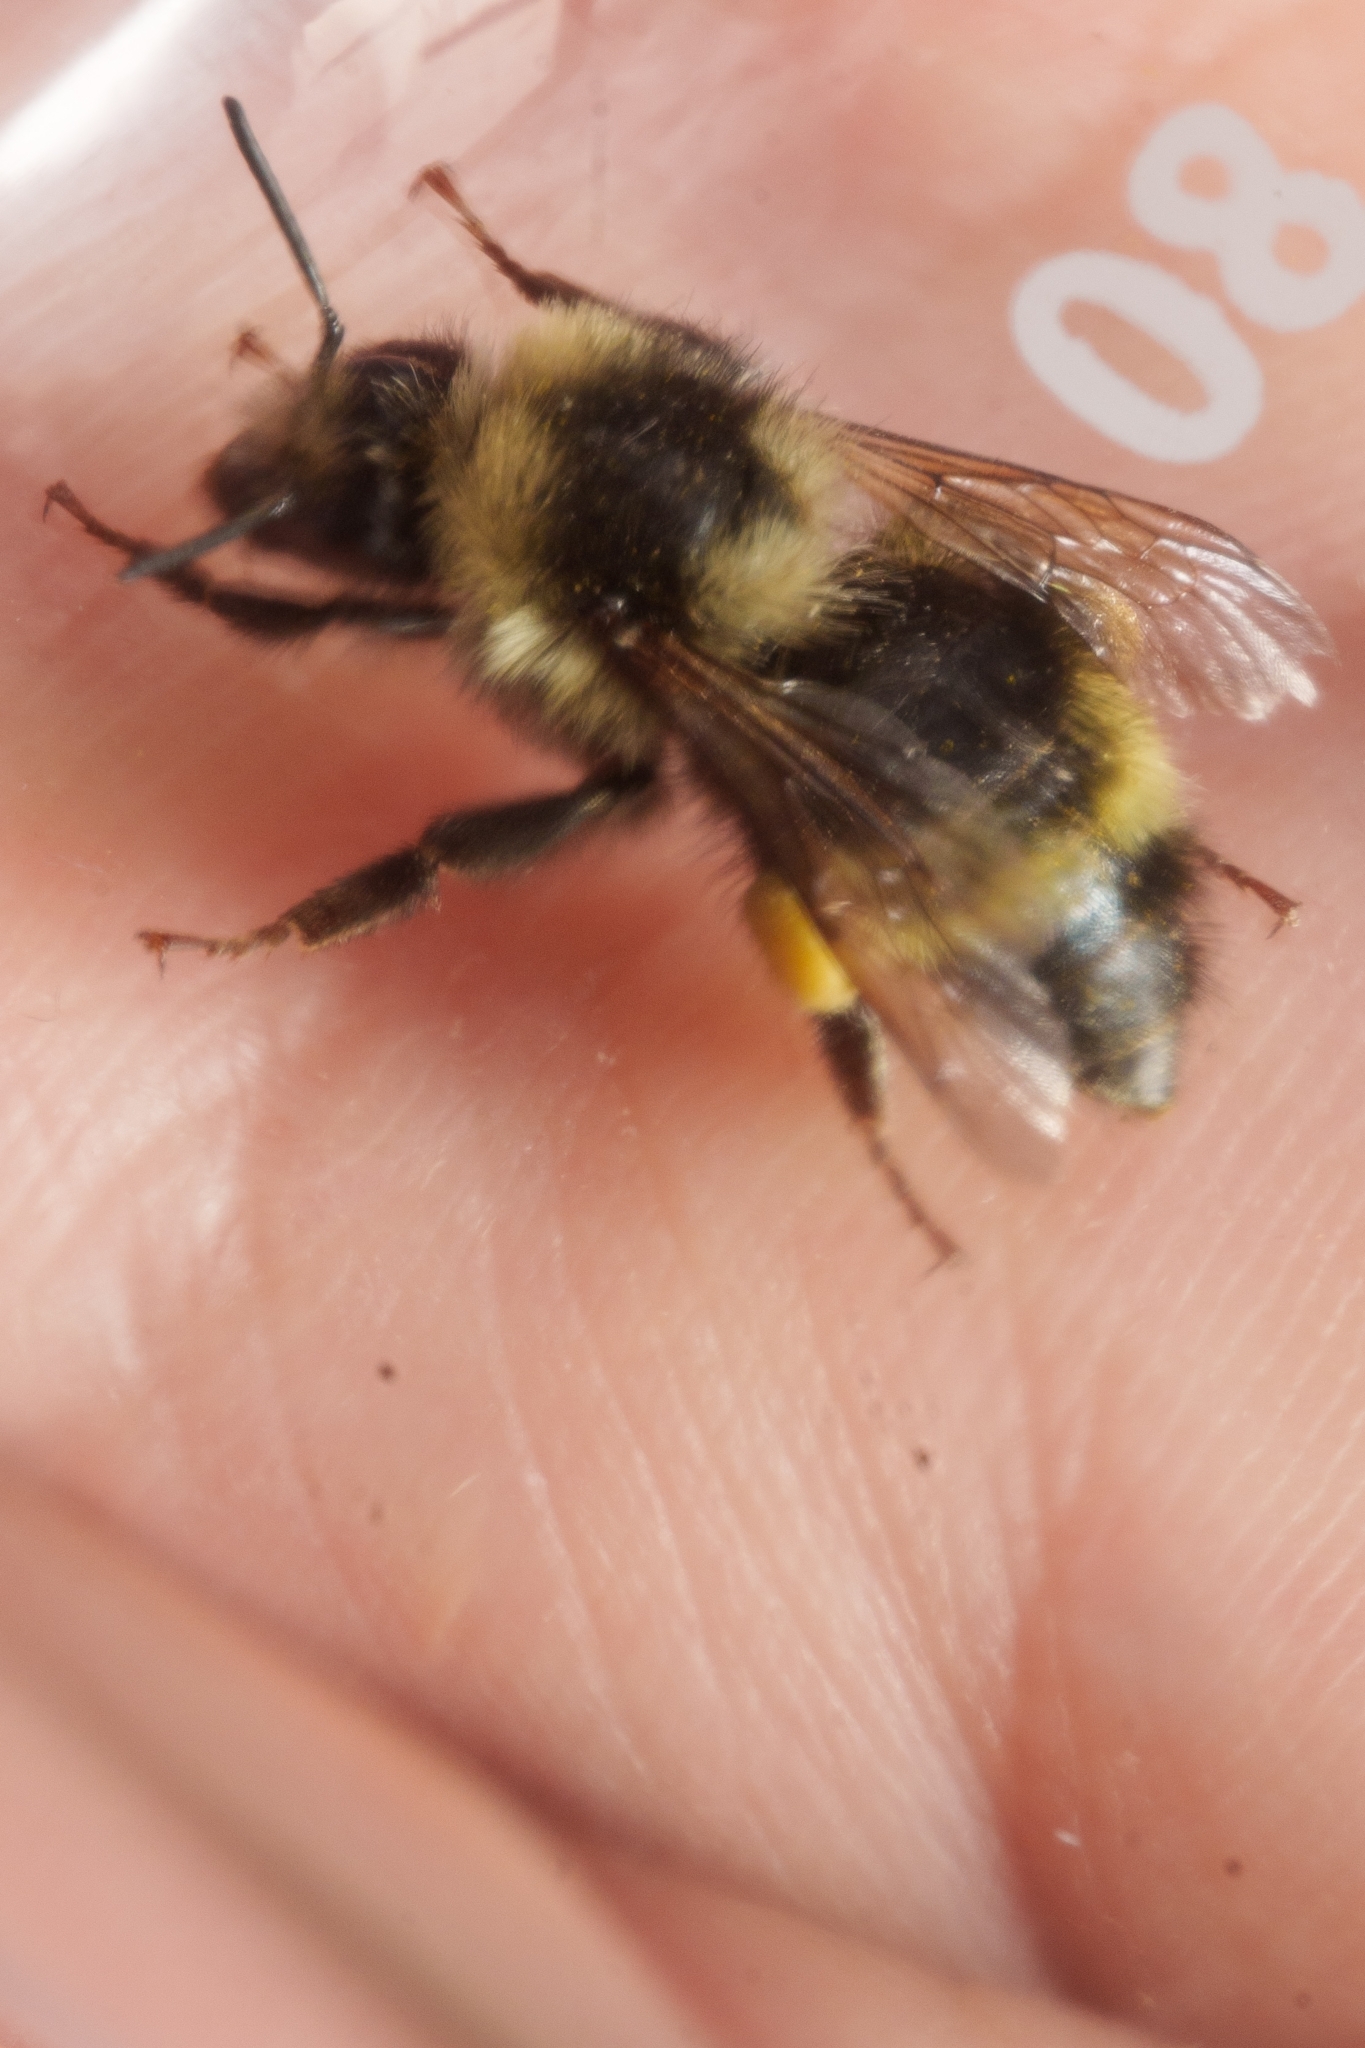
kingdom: Animalia
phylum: Arthropoda
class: Insecta
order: Hymenoptera
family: Apidae
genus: Bombus
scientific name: Bombus vandykei
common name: Van dyke bumble bee
